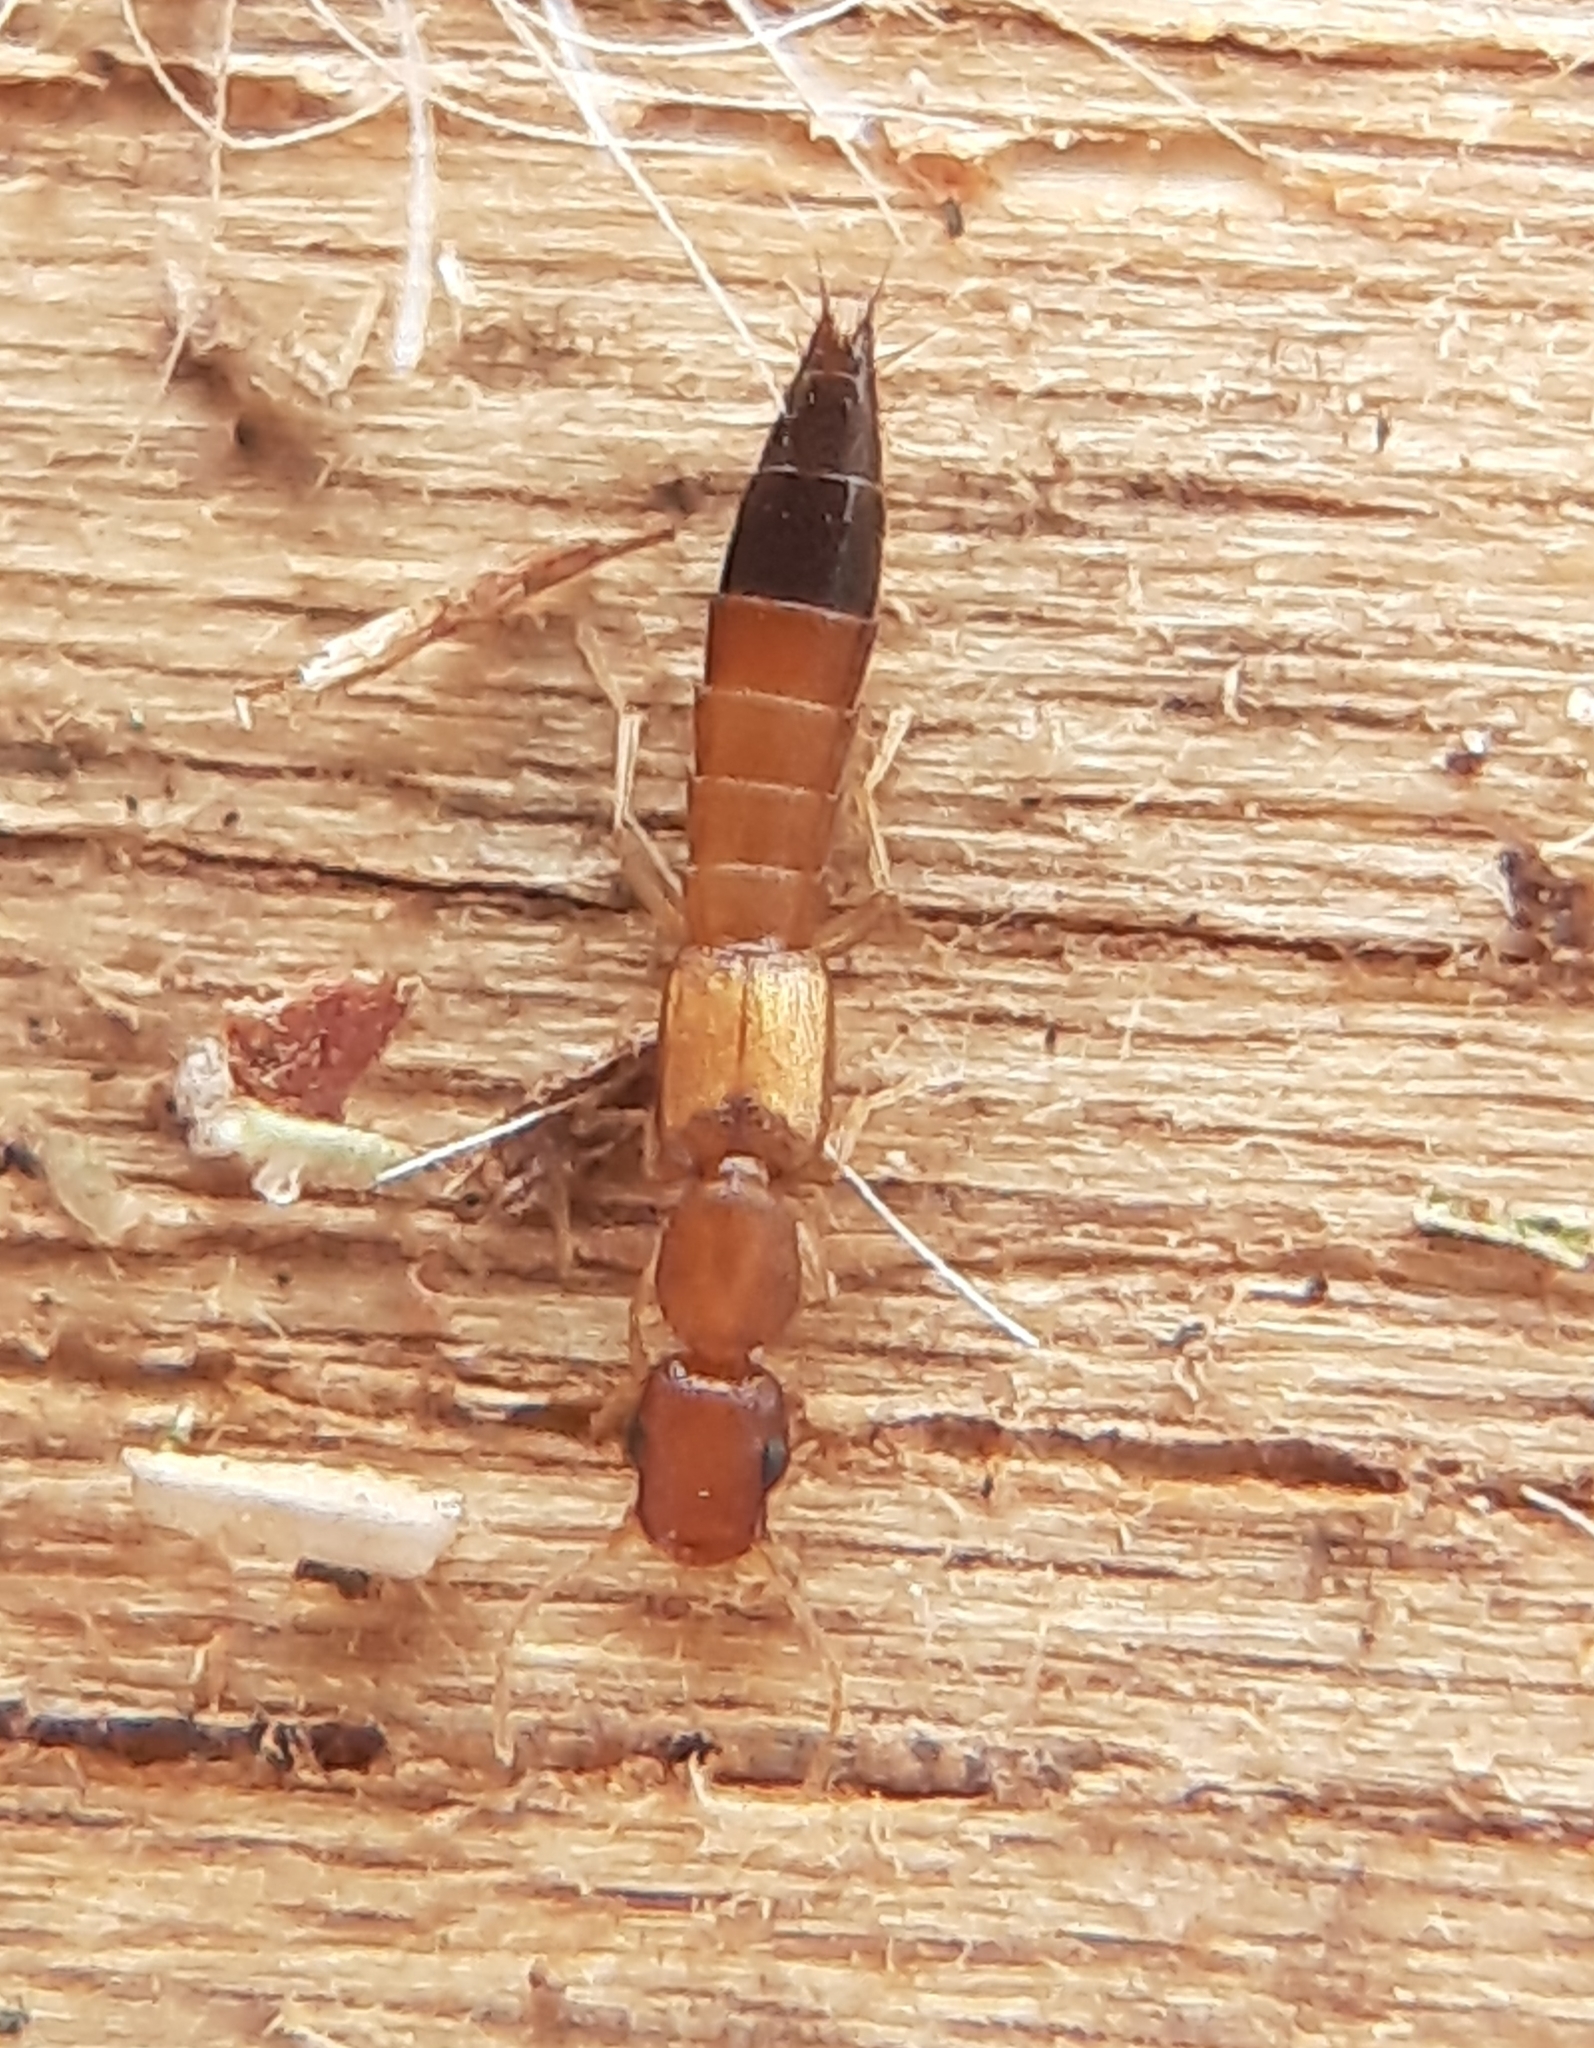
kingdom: Animalia
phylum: Arthropoda
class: Insecta
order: Coleoptera
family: Staphylinidae
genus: Astenus
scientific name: Astenus discopunctatus
